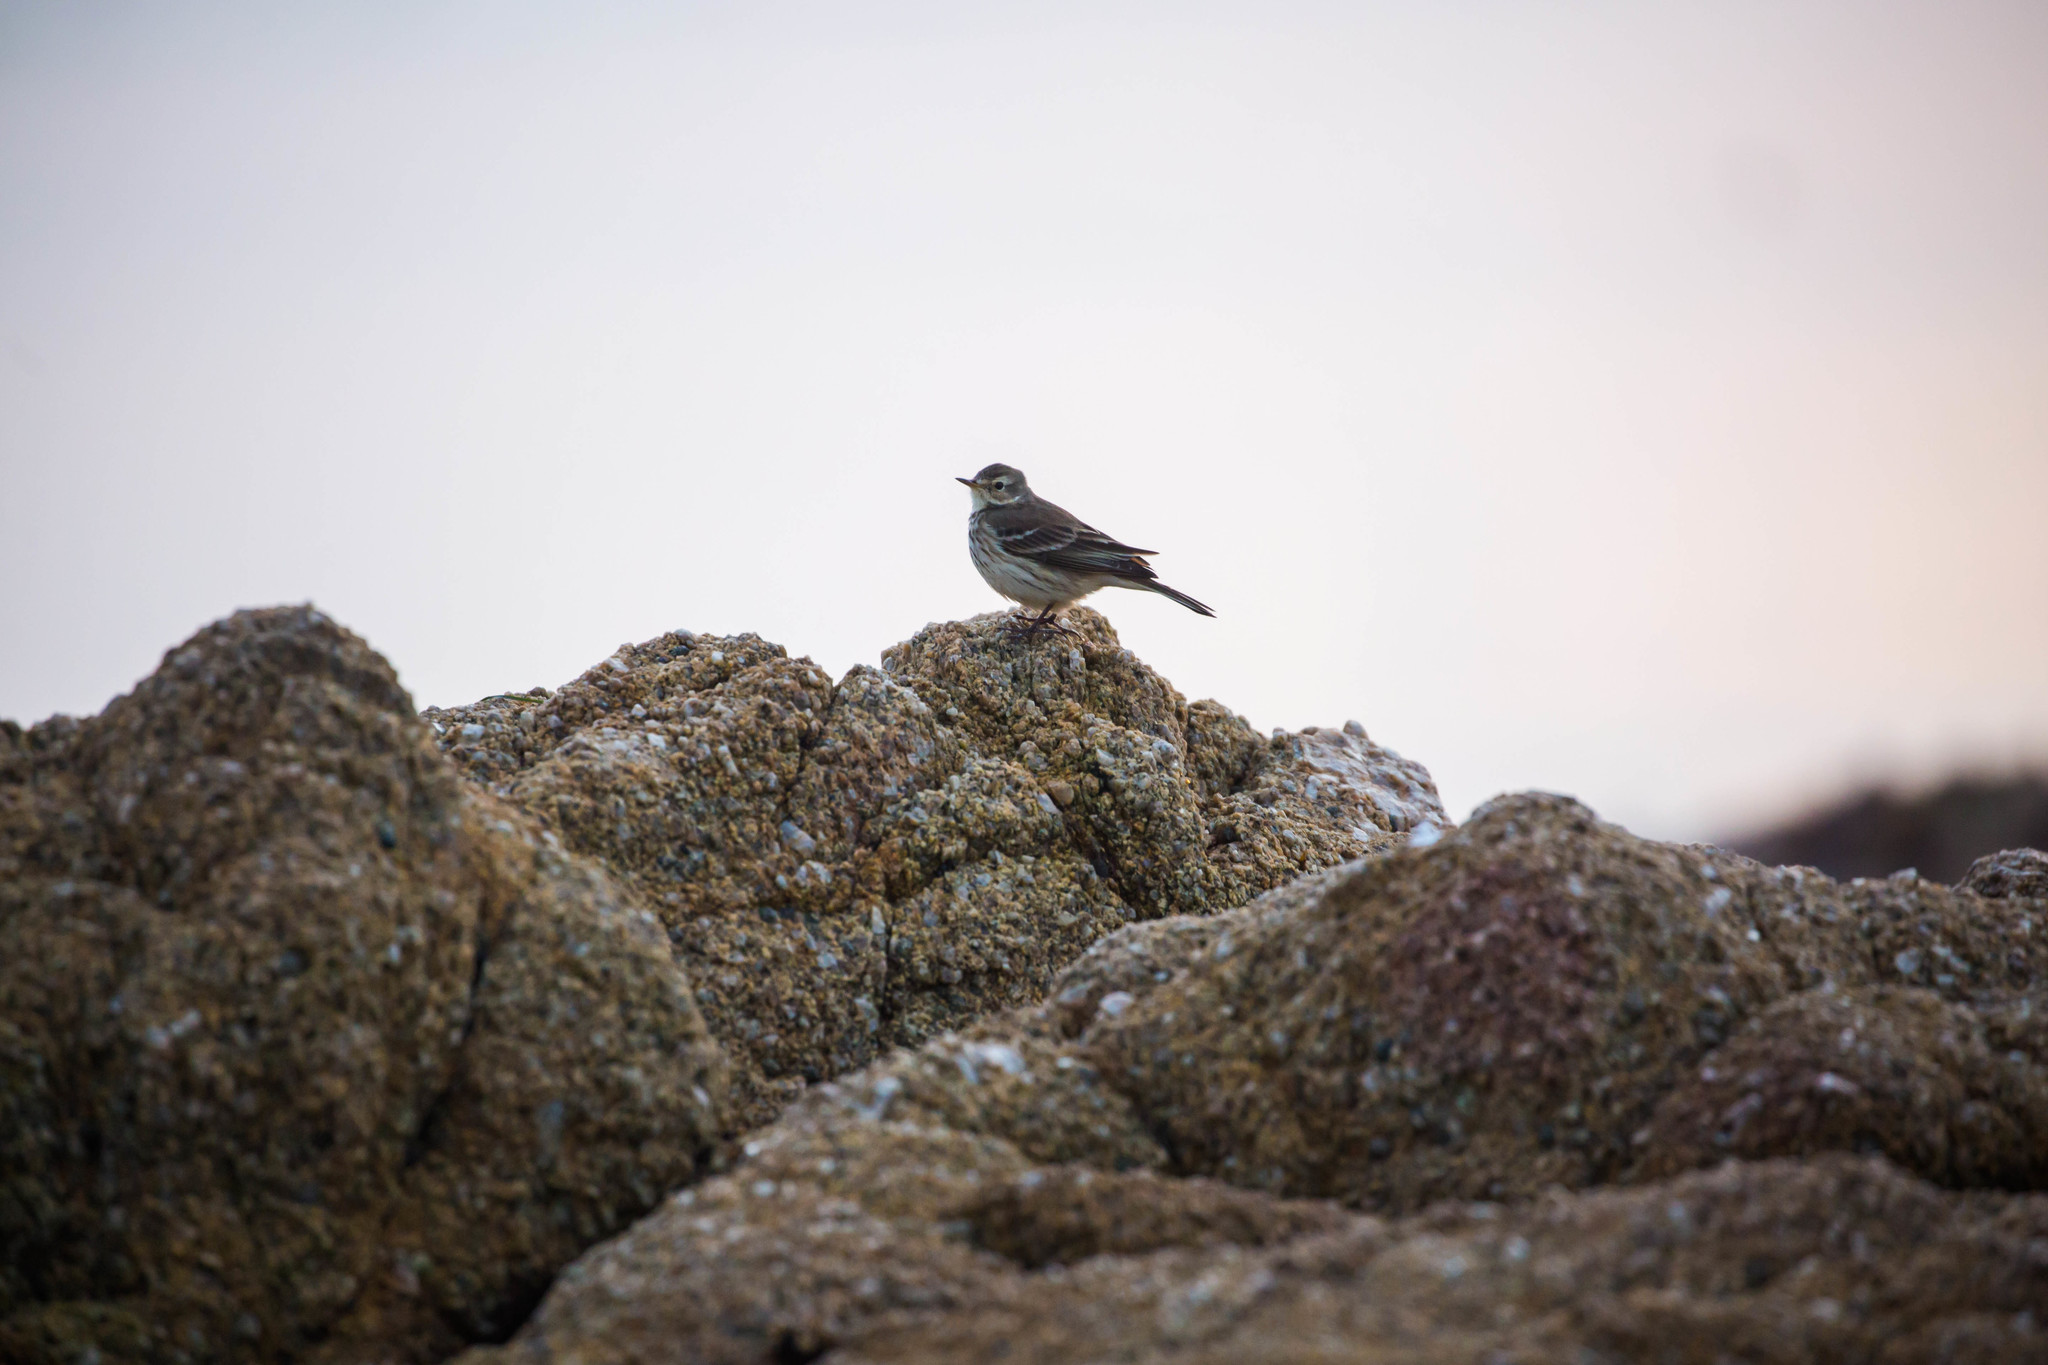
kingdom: Animalia
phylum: Chordata
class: Aves
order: Passeriformes
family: Motacillidae
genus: Anthus
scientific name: Anthus rubescens
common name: Buff-bellied pipit
